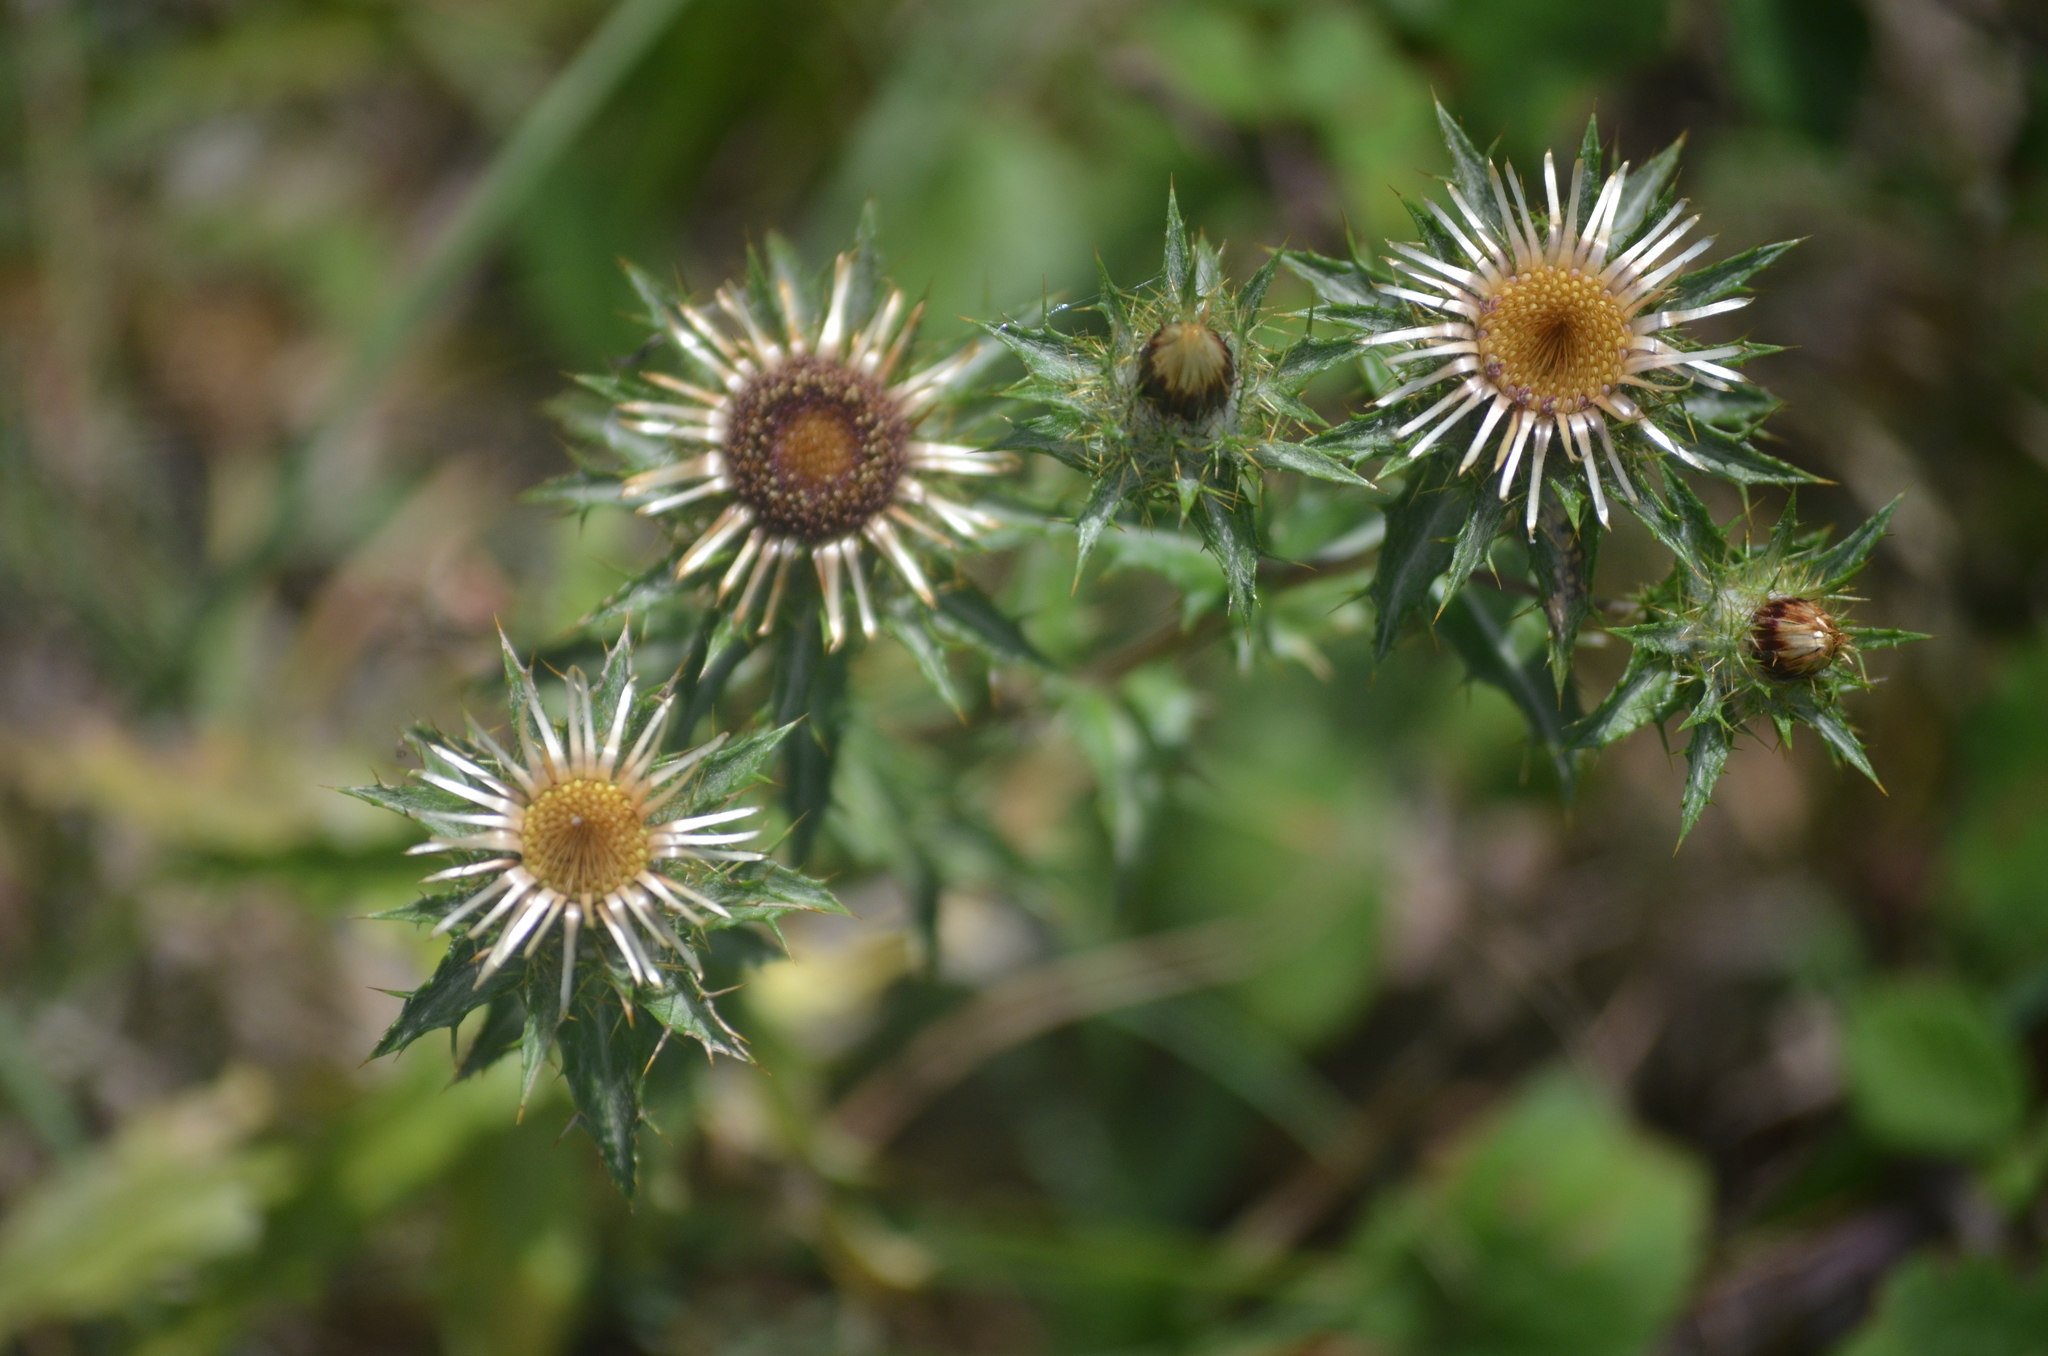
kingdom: Plantae
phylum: Tracheophyta
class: Magnoliopsida
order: Asterales
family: Asteraceae
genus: Carlina
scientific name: Carlina vulgaris
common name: Carline thistle
